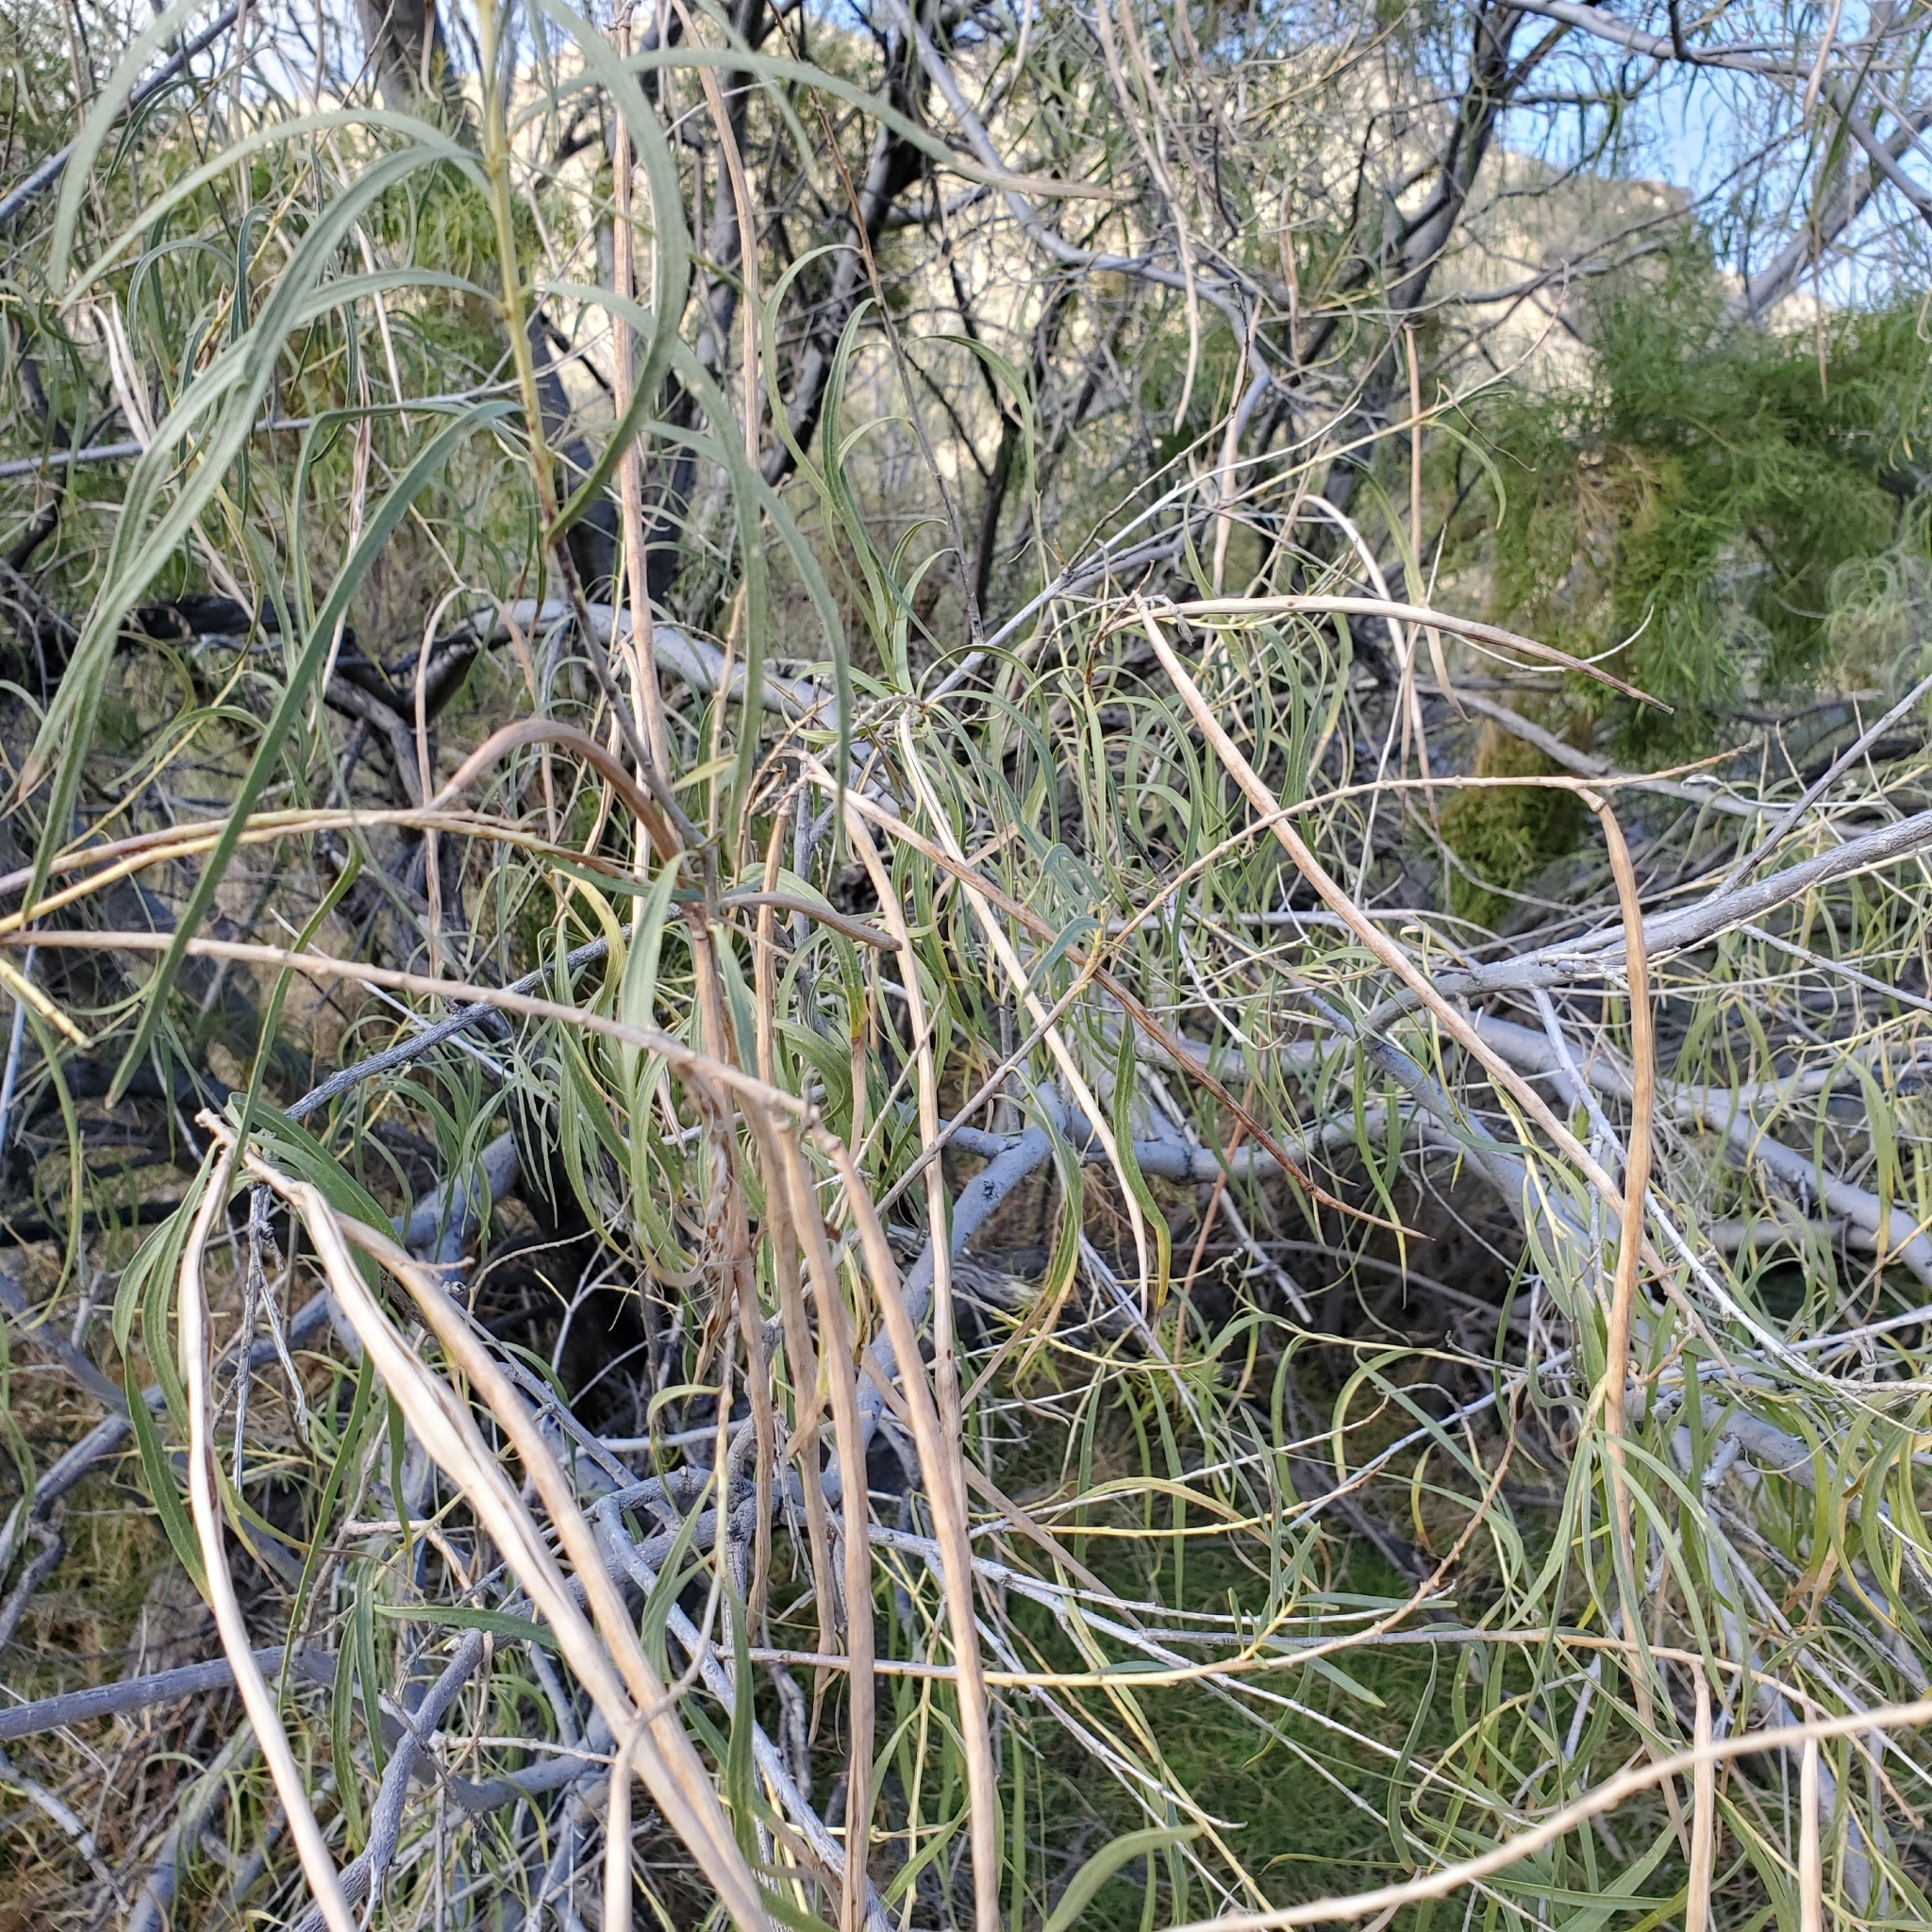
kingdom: Plantae
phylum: Tracheophyta
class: Magnoliopsida
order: Lamiales
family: Bignoniaceae
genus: Chilopsis
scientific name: Chilopsis linearis
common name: Desert-willow
